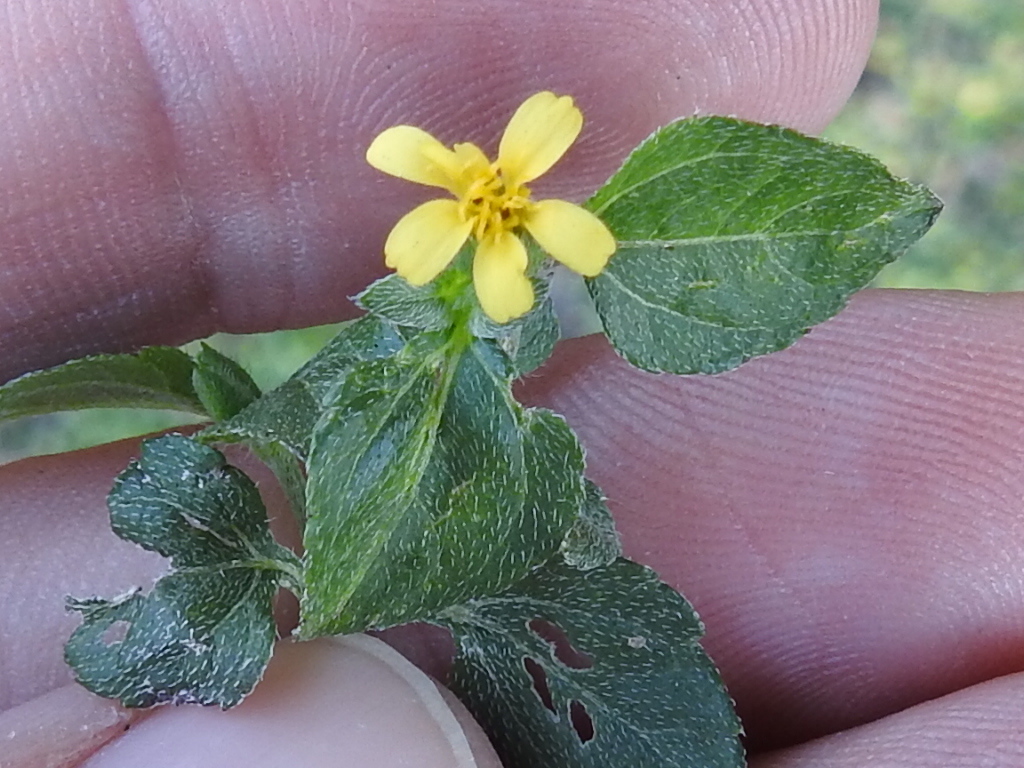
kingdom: Plantae
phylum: Tracheophyta
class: Magnoliopsida
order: Asterales
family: Asteraceae
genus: Calyptocarpus
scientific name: Calyptocarpus vialis
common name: Straggler daisy
